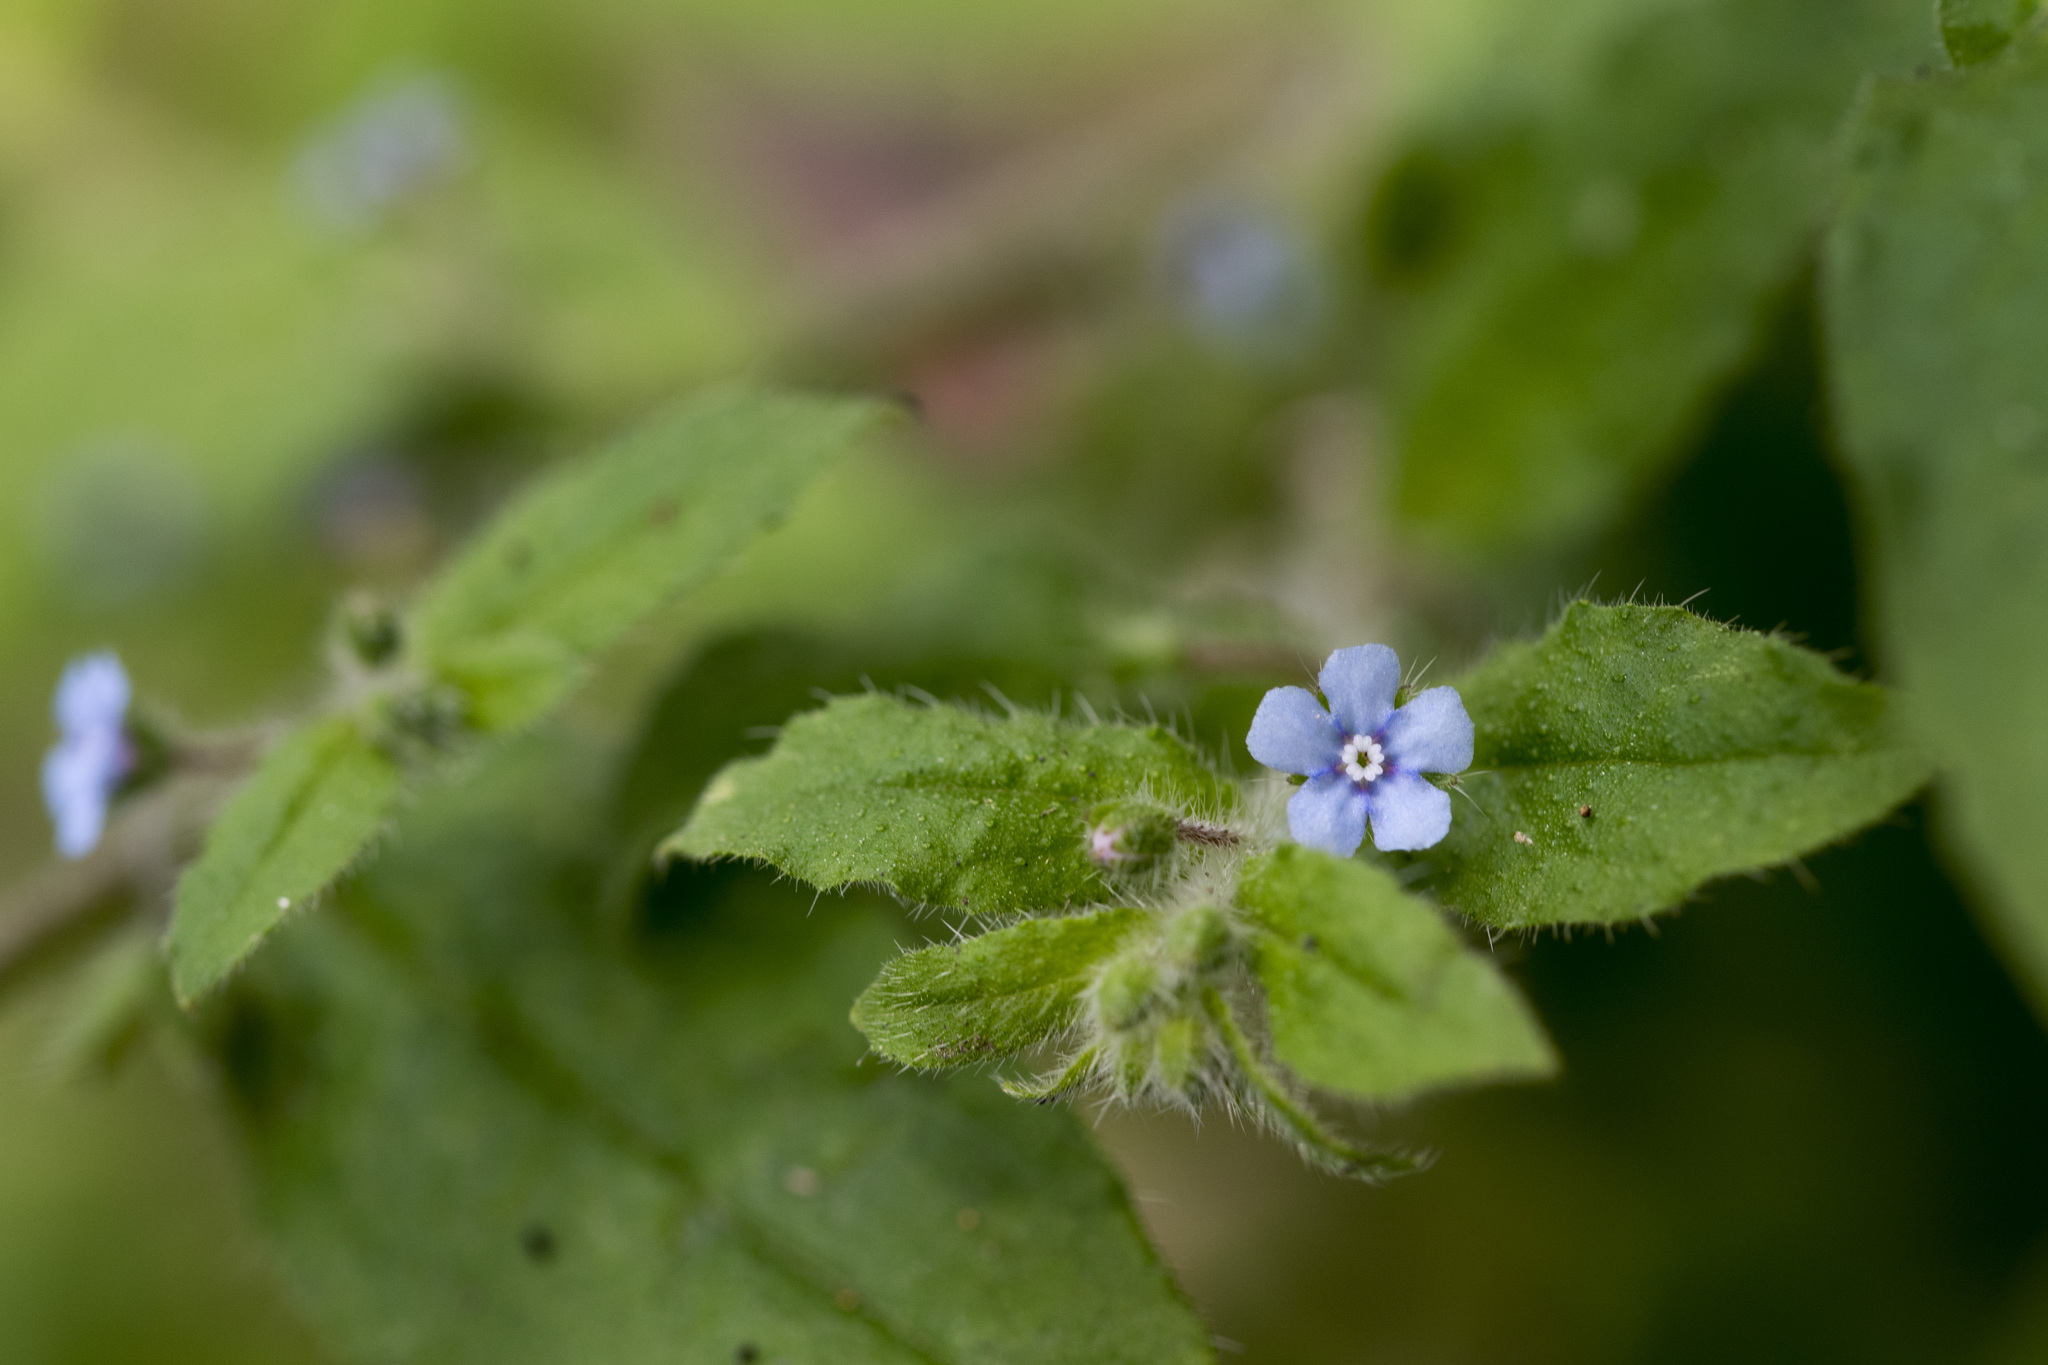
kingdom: Plantae
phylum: Tracheophyta
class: Magnoliopsida
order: Boraginales
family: Boraginaceae
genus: Thyrocarpus
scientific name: Thyrocarpus sampsonii
